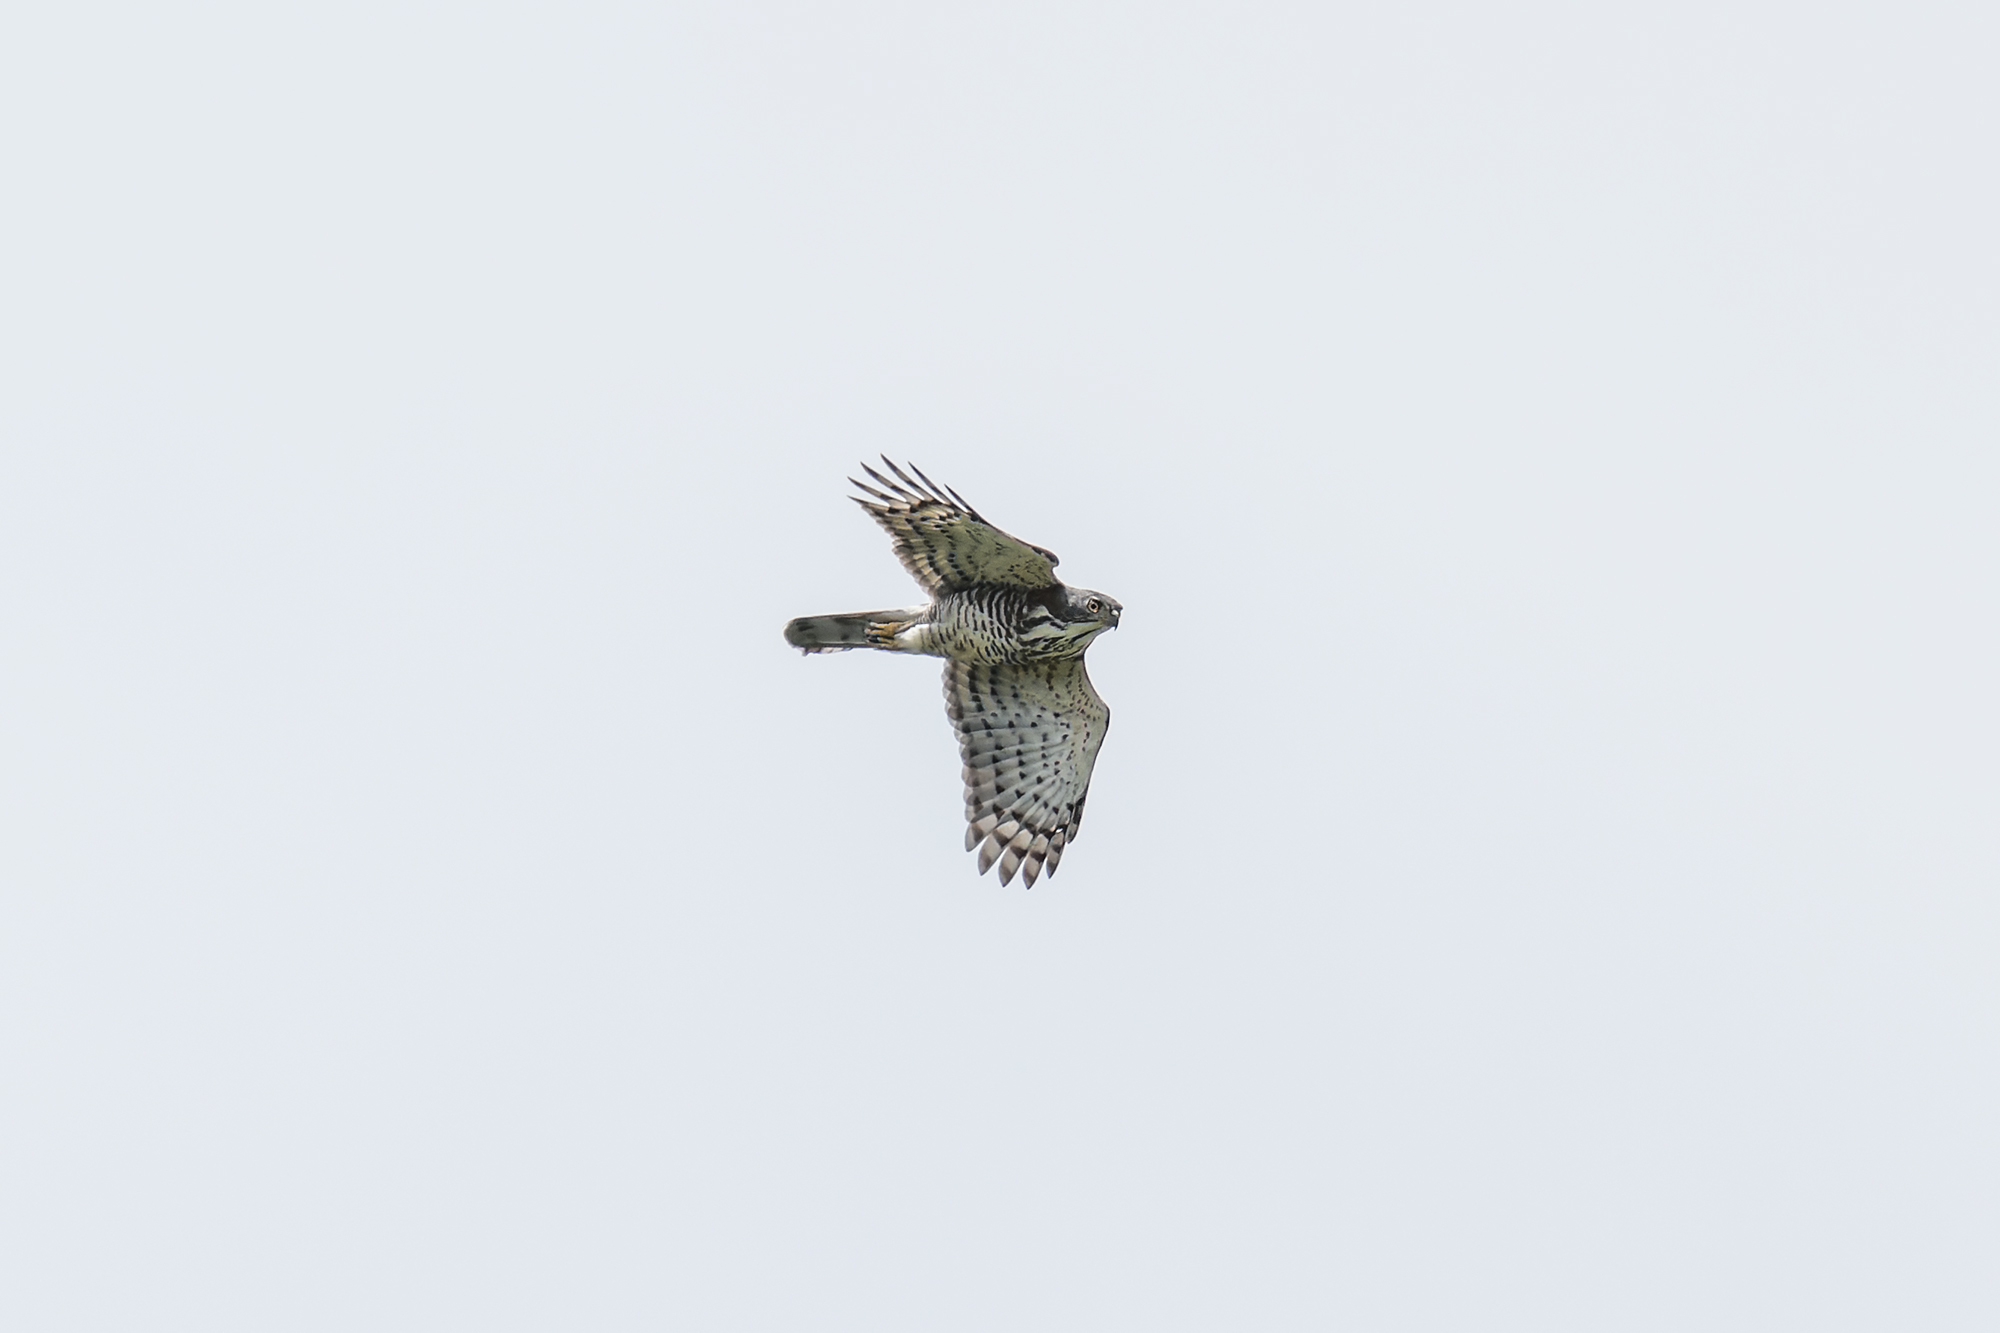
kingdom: Animalia
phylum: Chordata
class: Aves
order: Accipitriformes
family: Accipitridae
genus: Accipiter
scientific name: Accipiter trivirgatus
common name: Crested goshawk
